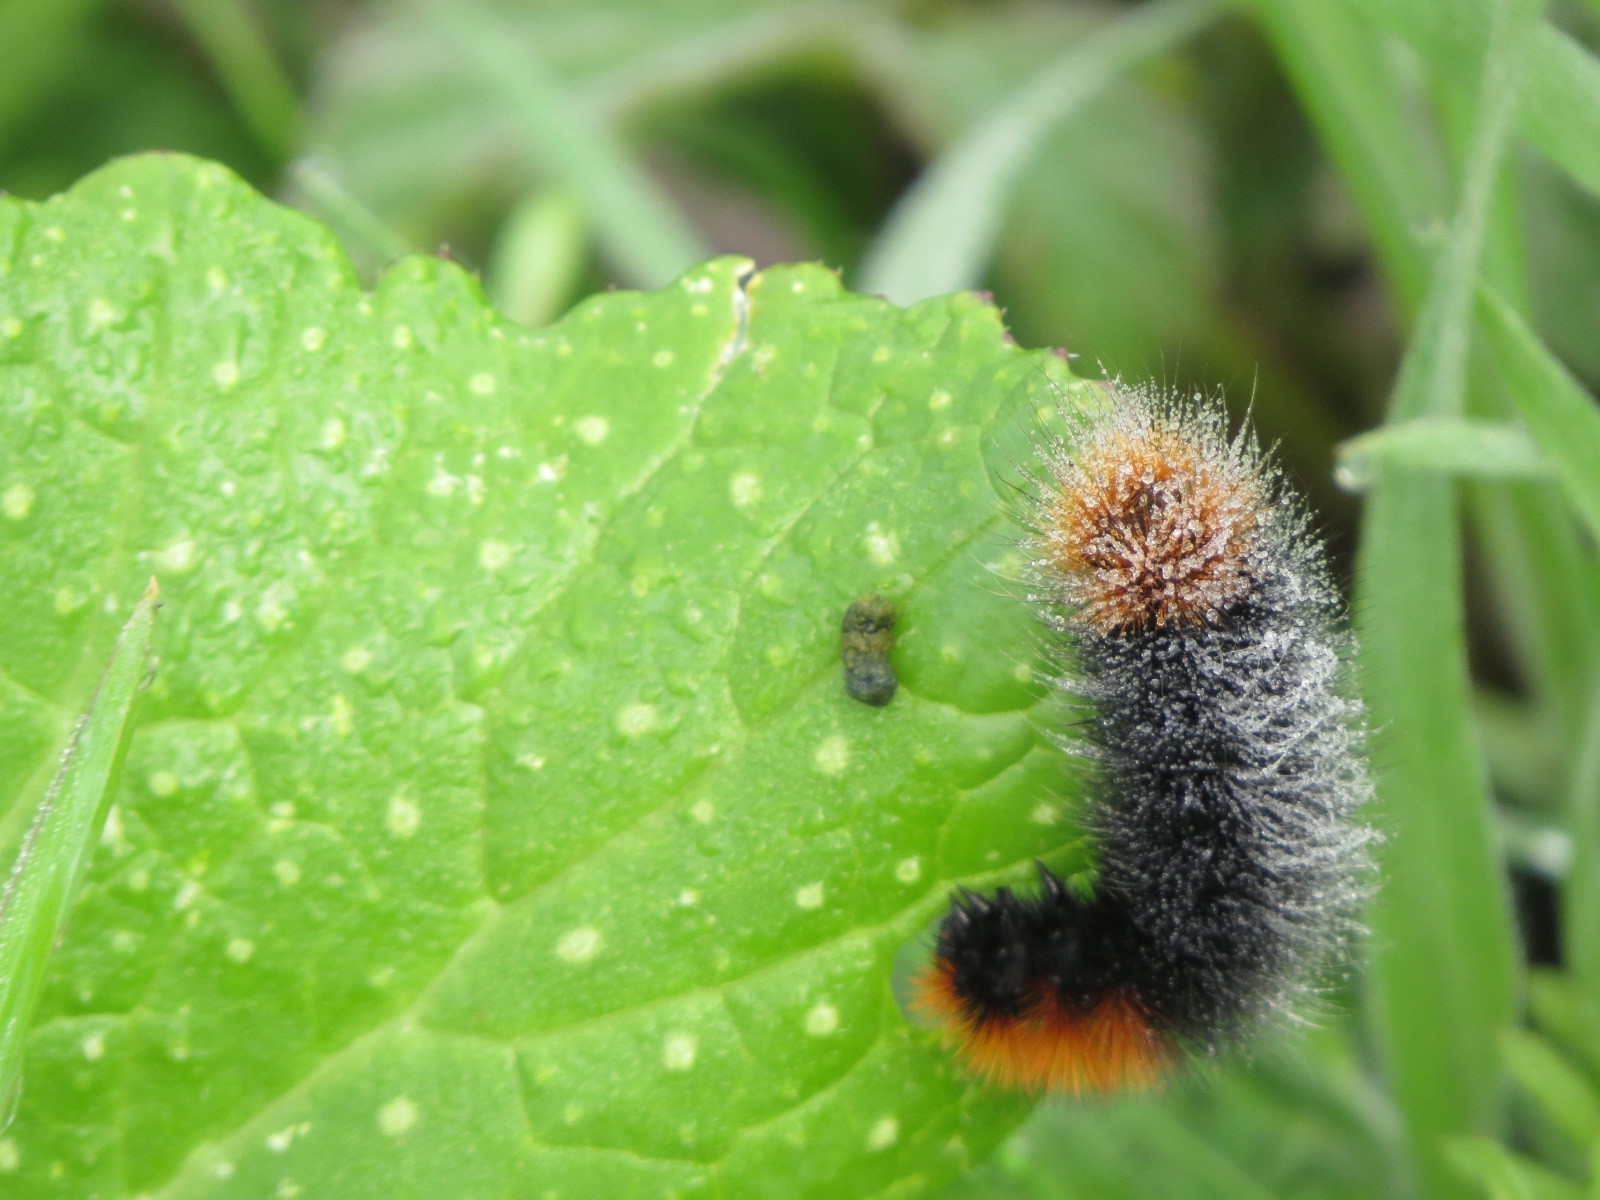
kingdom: Animalia
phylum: Arthropoda
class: Insecta
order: Lepidoptera
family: Erebidae
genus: Arctia
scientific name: Arctia tigrina
